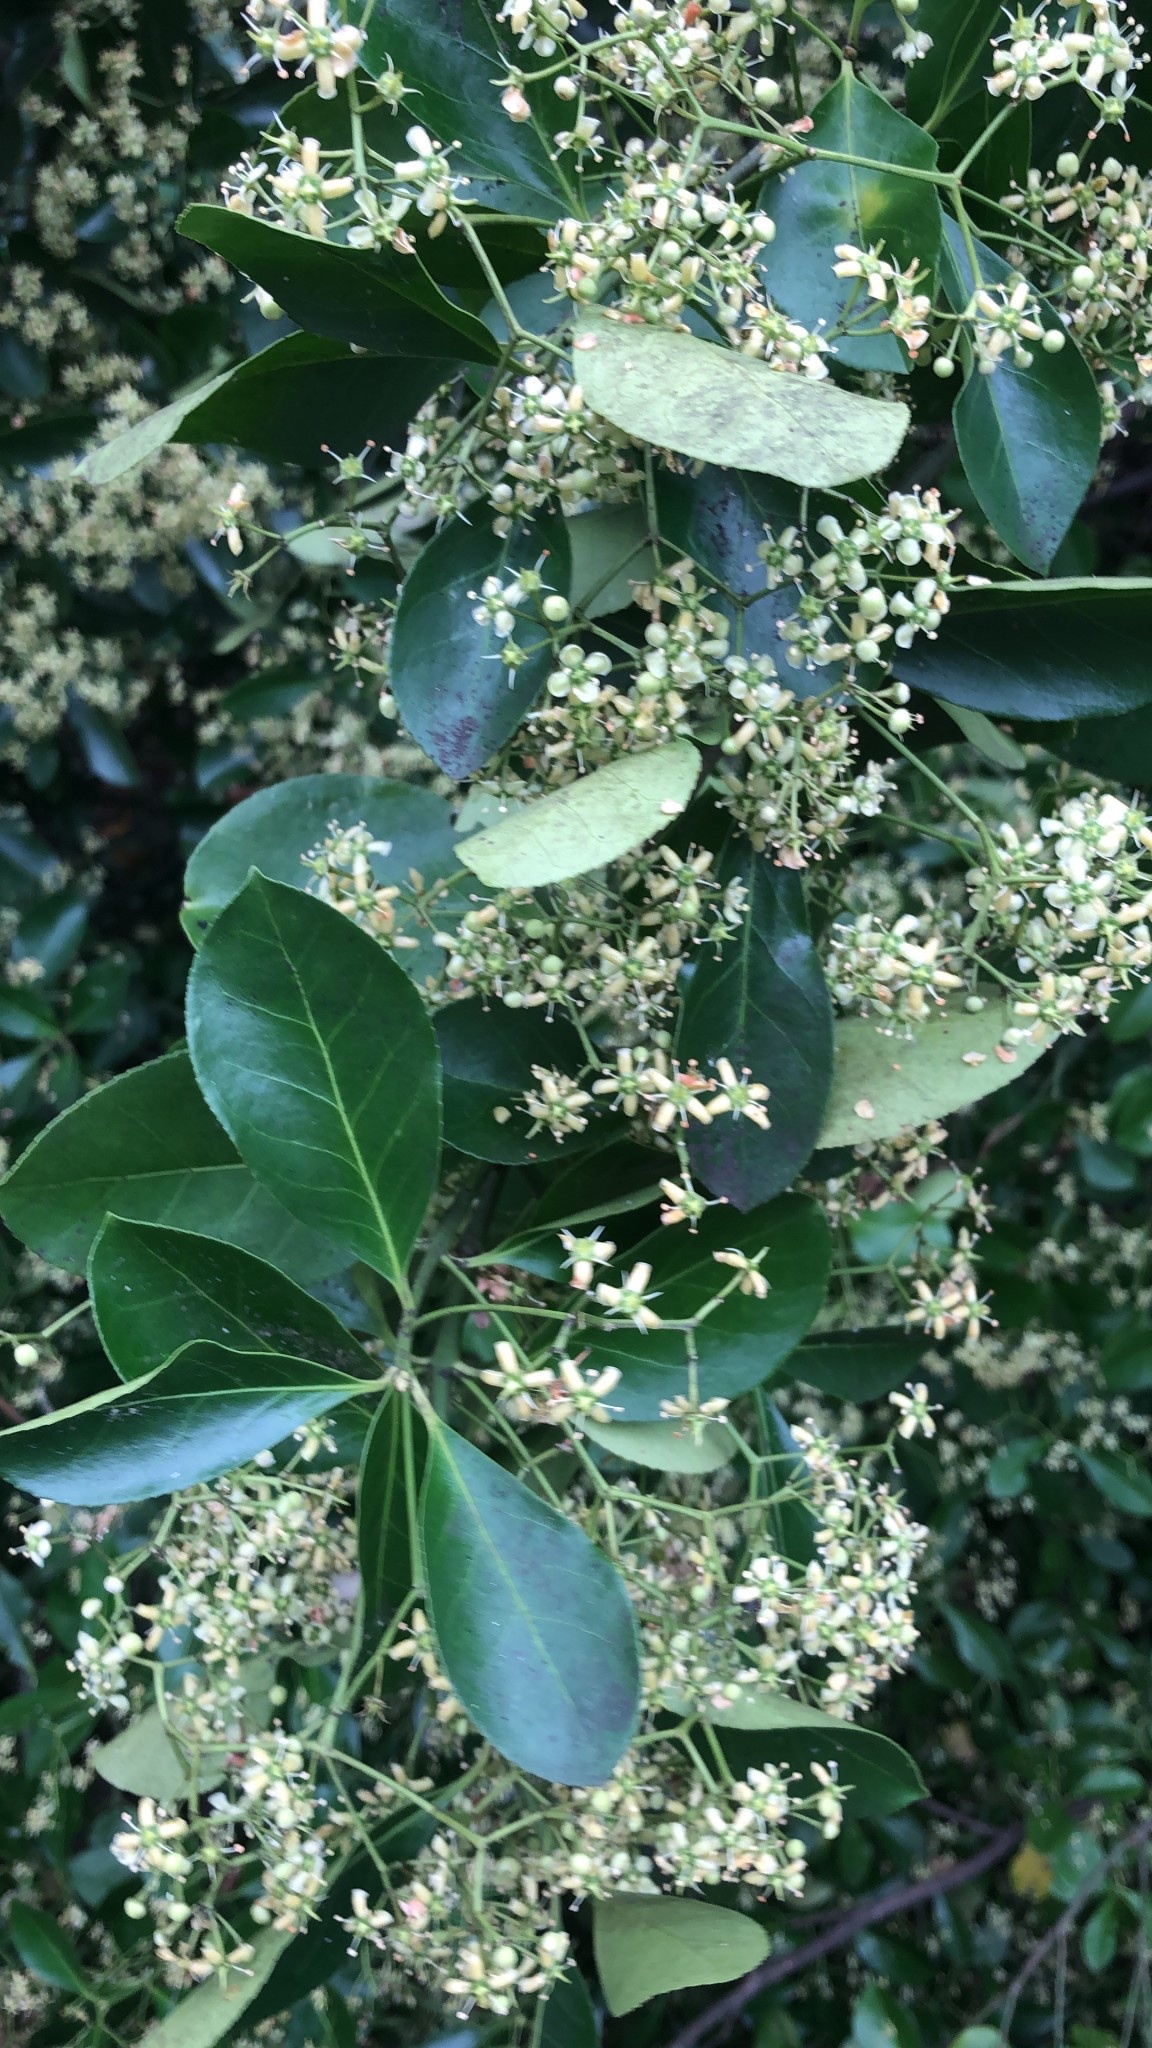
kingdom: Plantae
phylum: Tracheophyta
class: Magnoliopsida
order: Celastrales
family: Celastraceae
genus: Euonymus
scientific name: Euonymus japonicus
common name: Japanese spindletree
